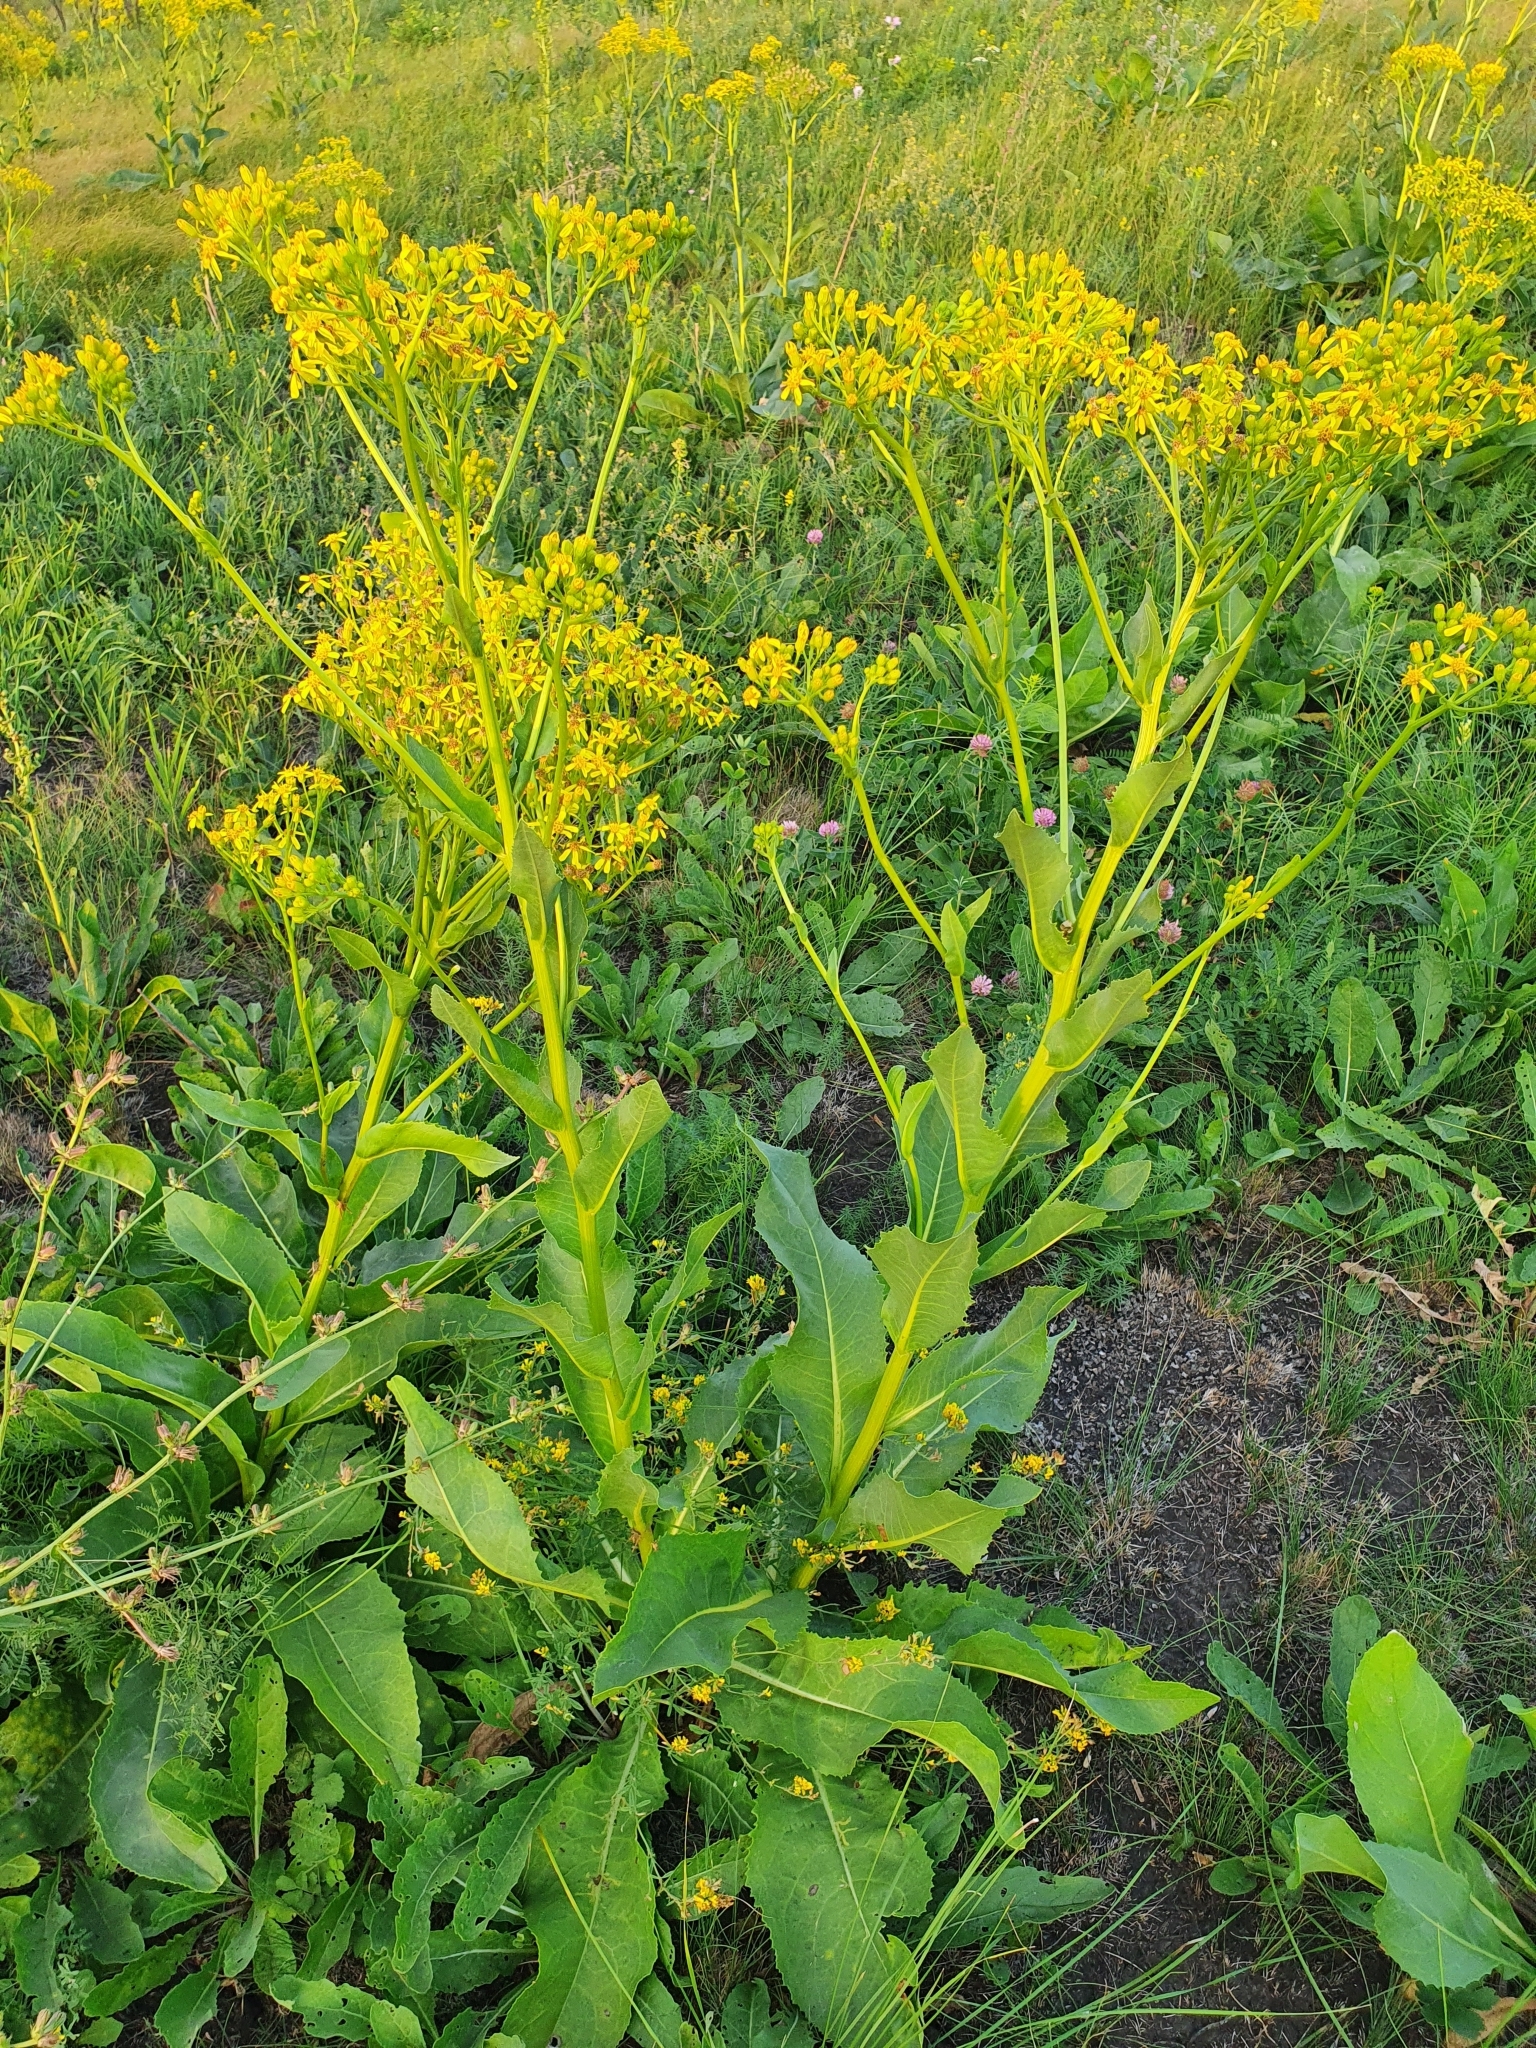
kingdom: Plantae
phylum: Tracheophyta
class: Magnoliopsida
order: Asterales
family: Asteraceae
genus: Senecio
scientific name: Senecio doria
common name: Golden ragwort
